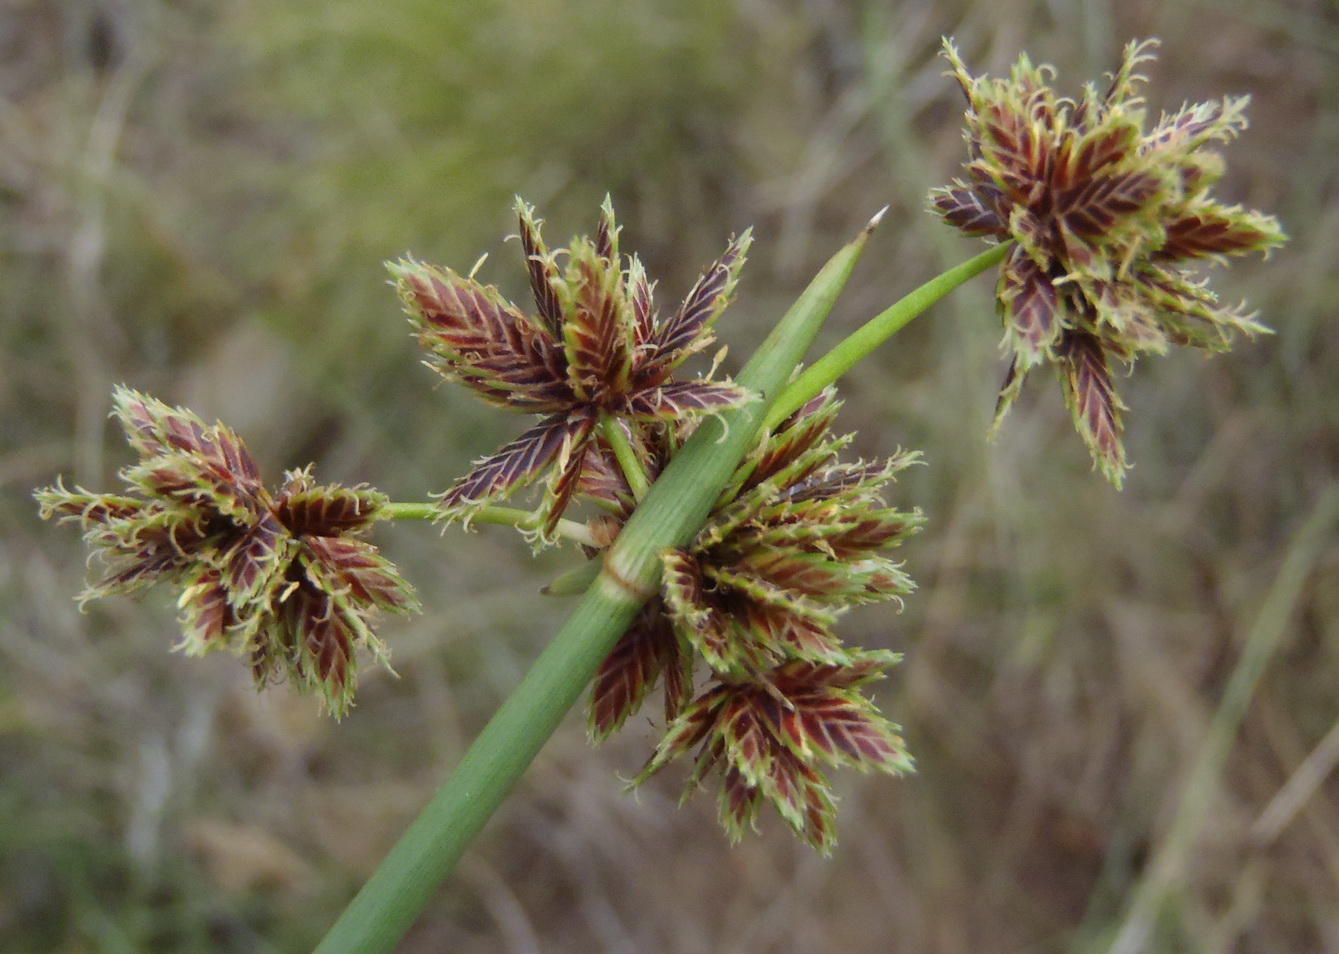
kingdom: Plantae
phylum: Tracheophyta
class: Liliopsida
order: Poales
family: Cyperaceae
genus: Cyperus
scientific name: Cyperus marginatus
